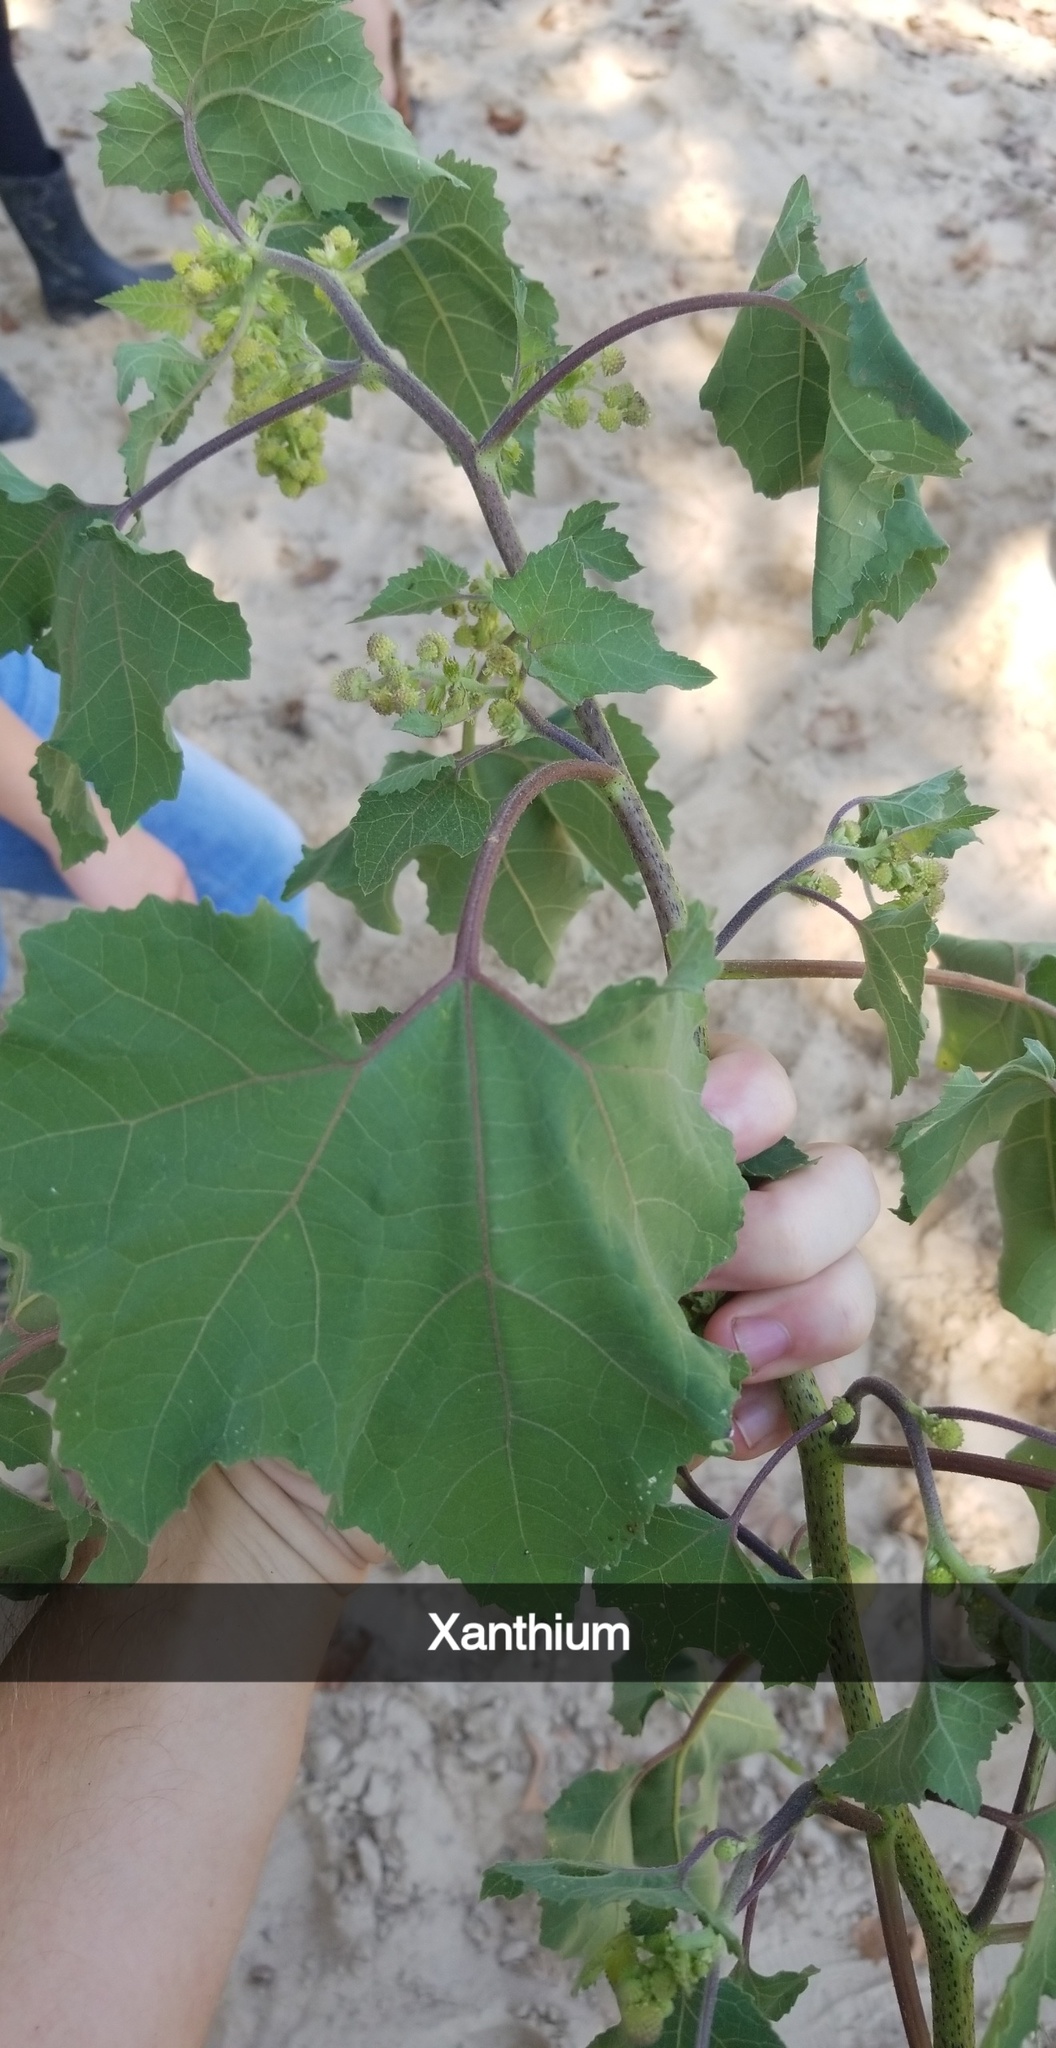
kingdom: Plantae
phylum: Tracheophyta
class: Magnoliopsida
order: Asterales
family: Asteraceae
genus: Xanthium
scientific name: Xanthium strumarium
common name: Rough cocklebur
